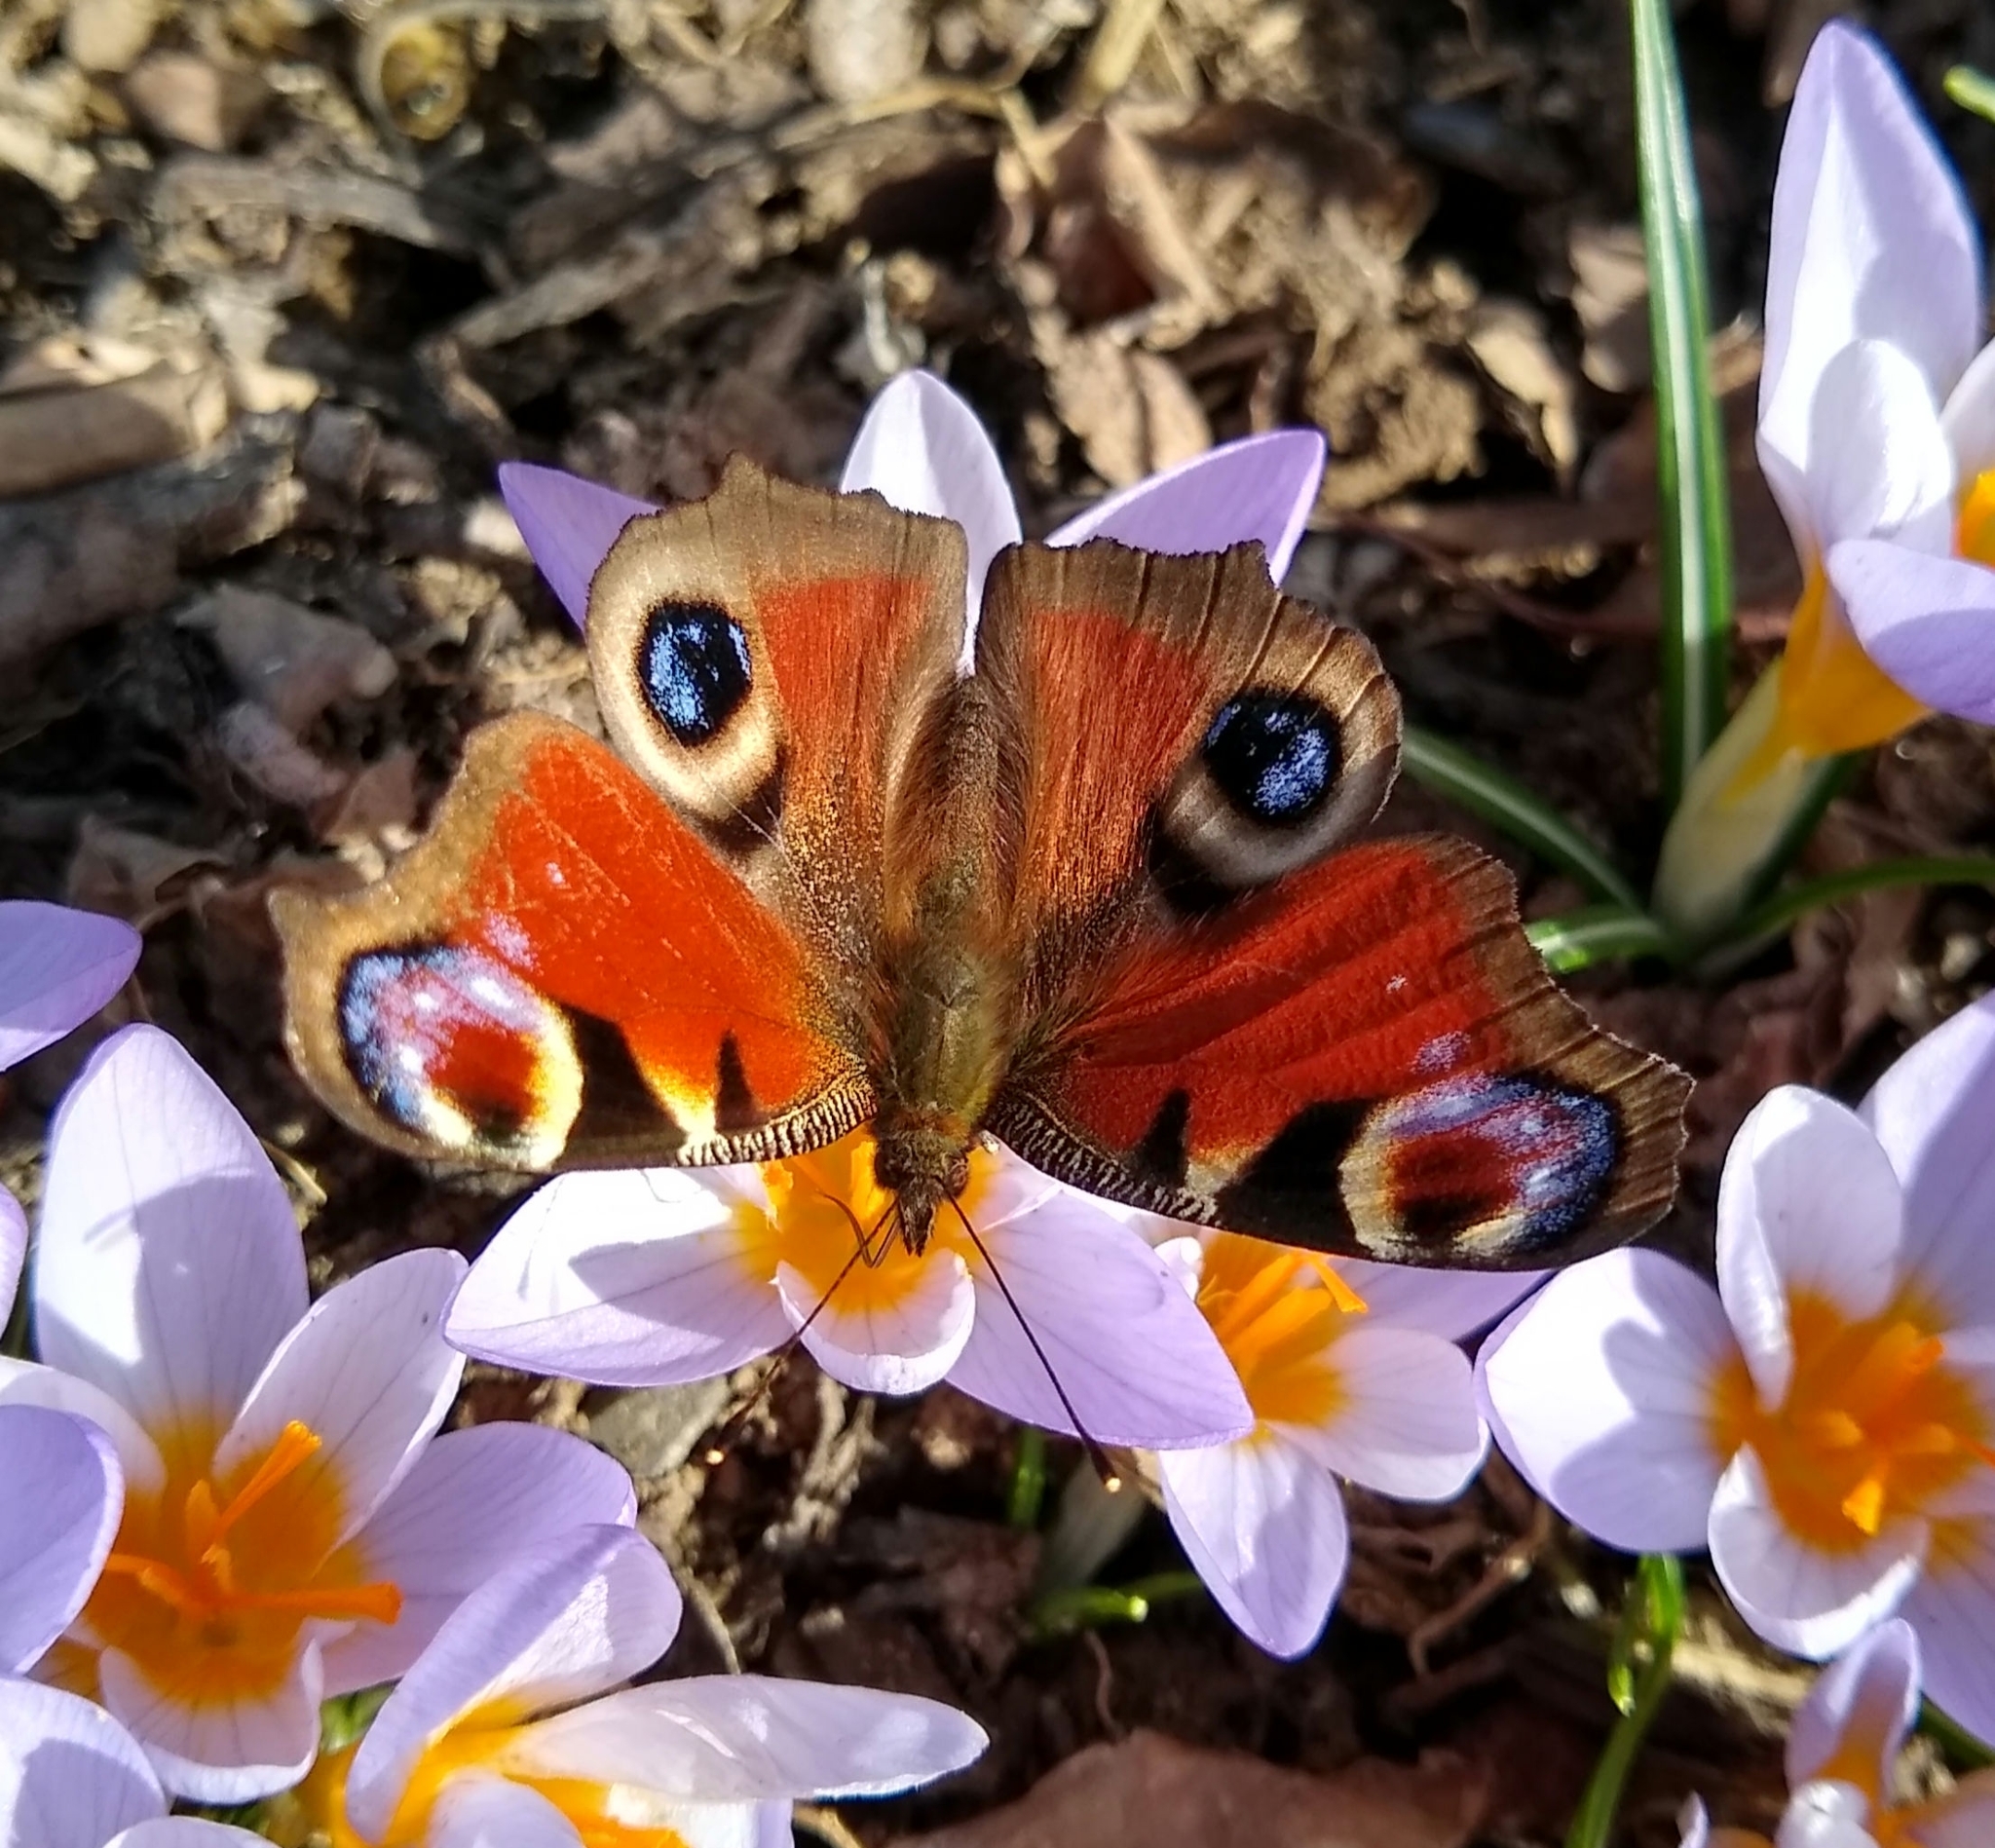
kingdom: Animalia
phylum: Arthropoda
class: Insecta
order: Lepidoptera
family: Nymphalidae
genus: Aglais
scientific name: Aglais io
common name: Peacock
